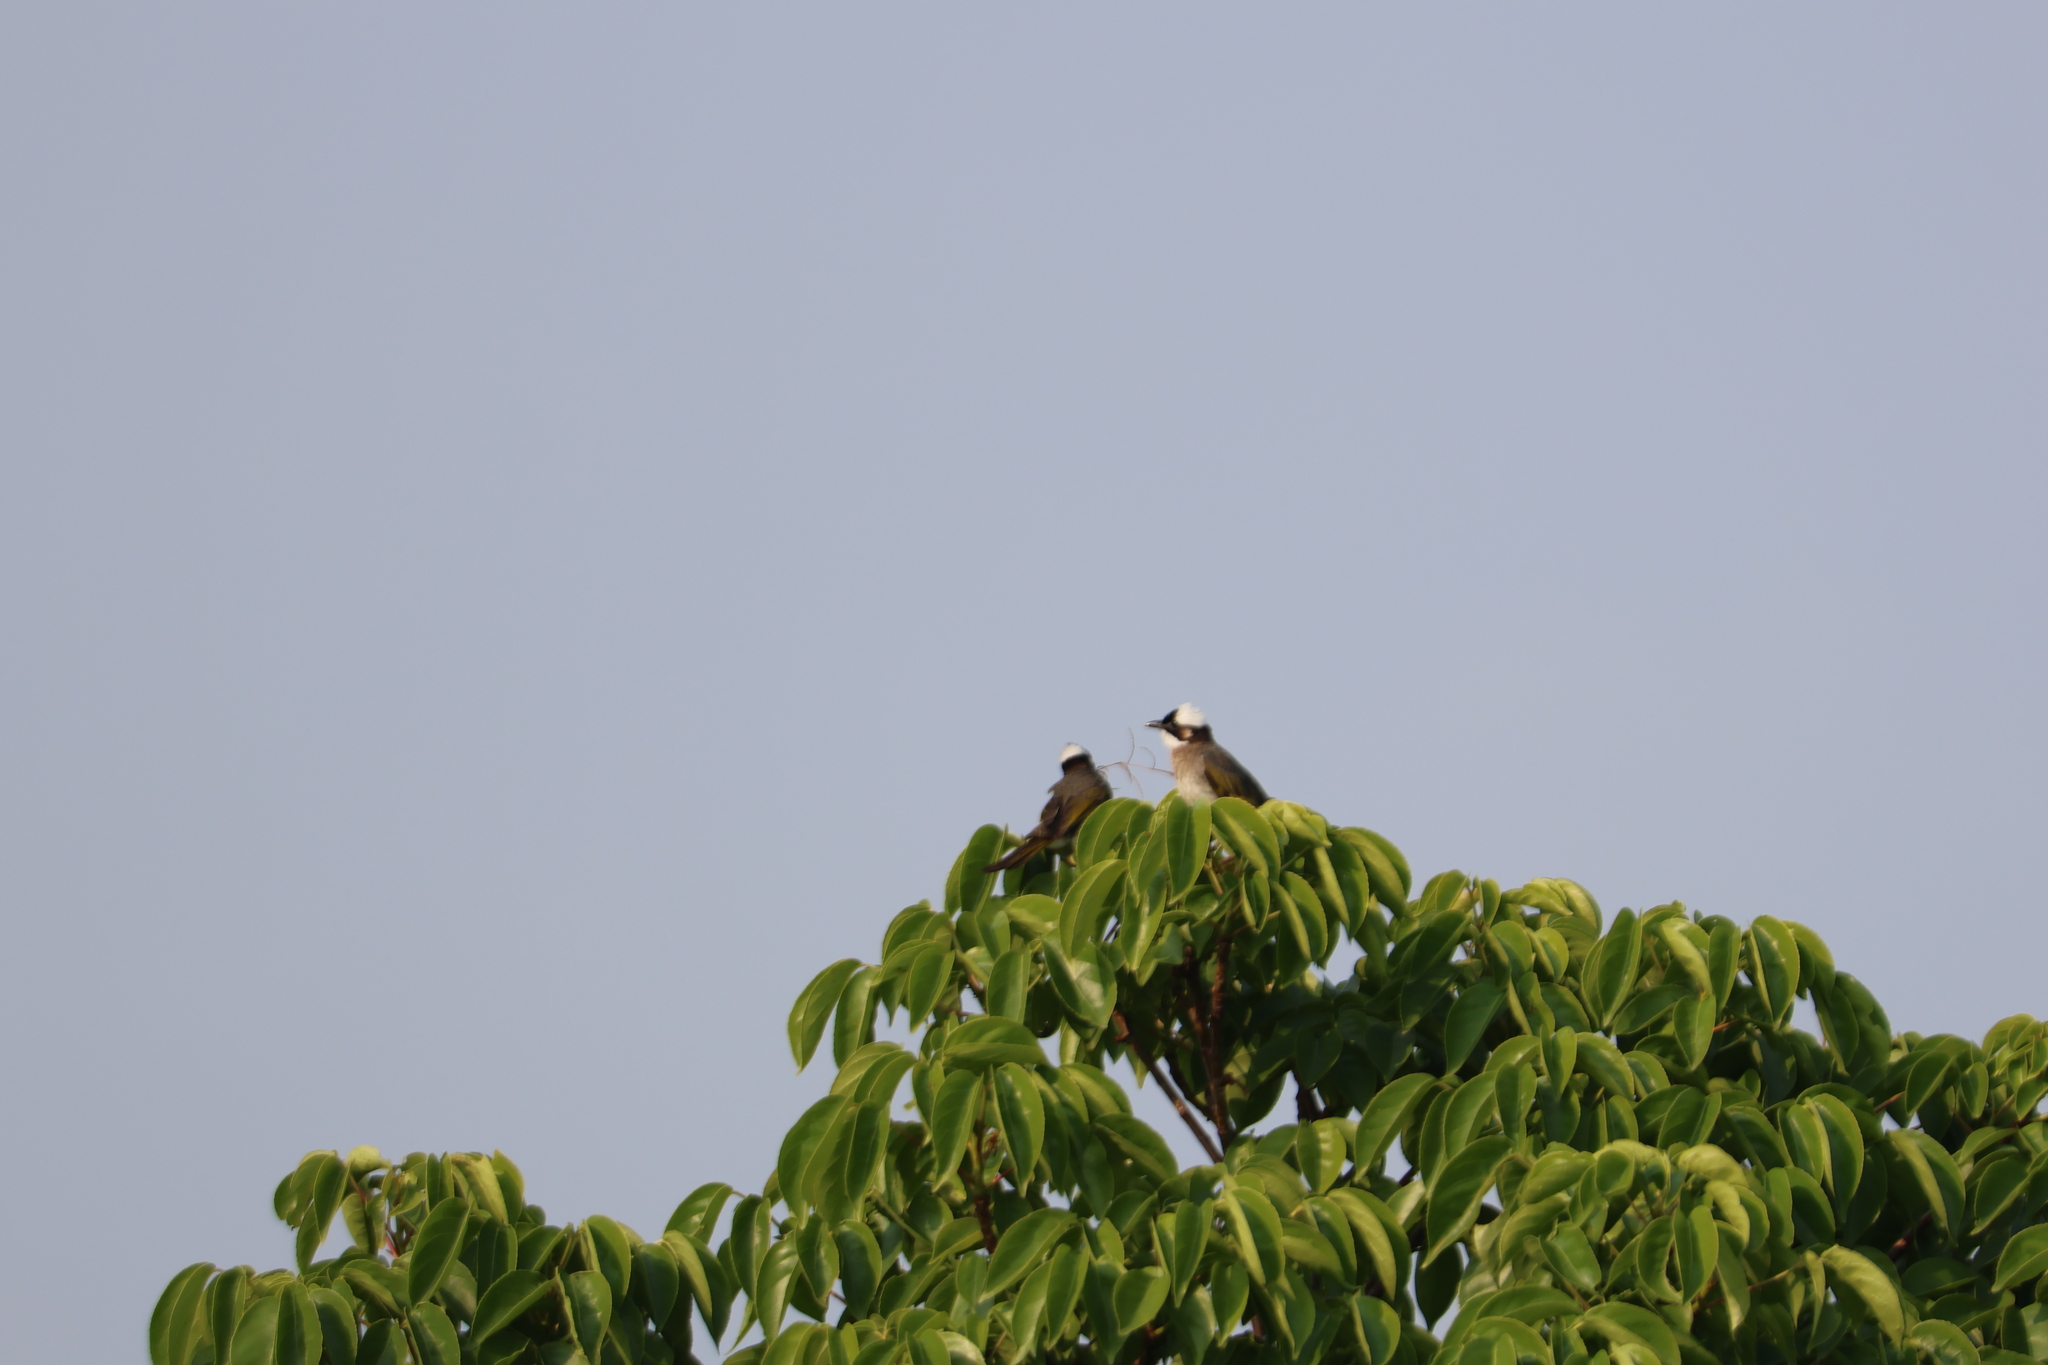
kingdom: Animalia
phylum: Chordata
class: Aves
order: Passeriformes
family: Pycnonotidae
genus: Pycnonotus
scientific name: Pycnonotus sinensis
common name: Light-vented bulbul
